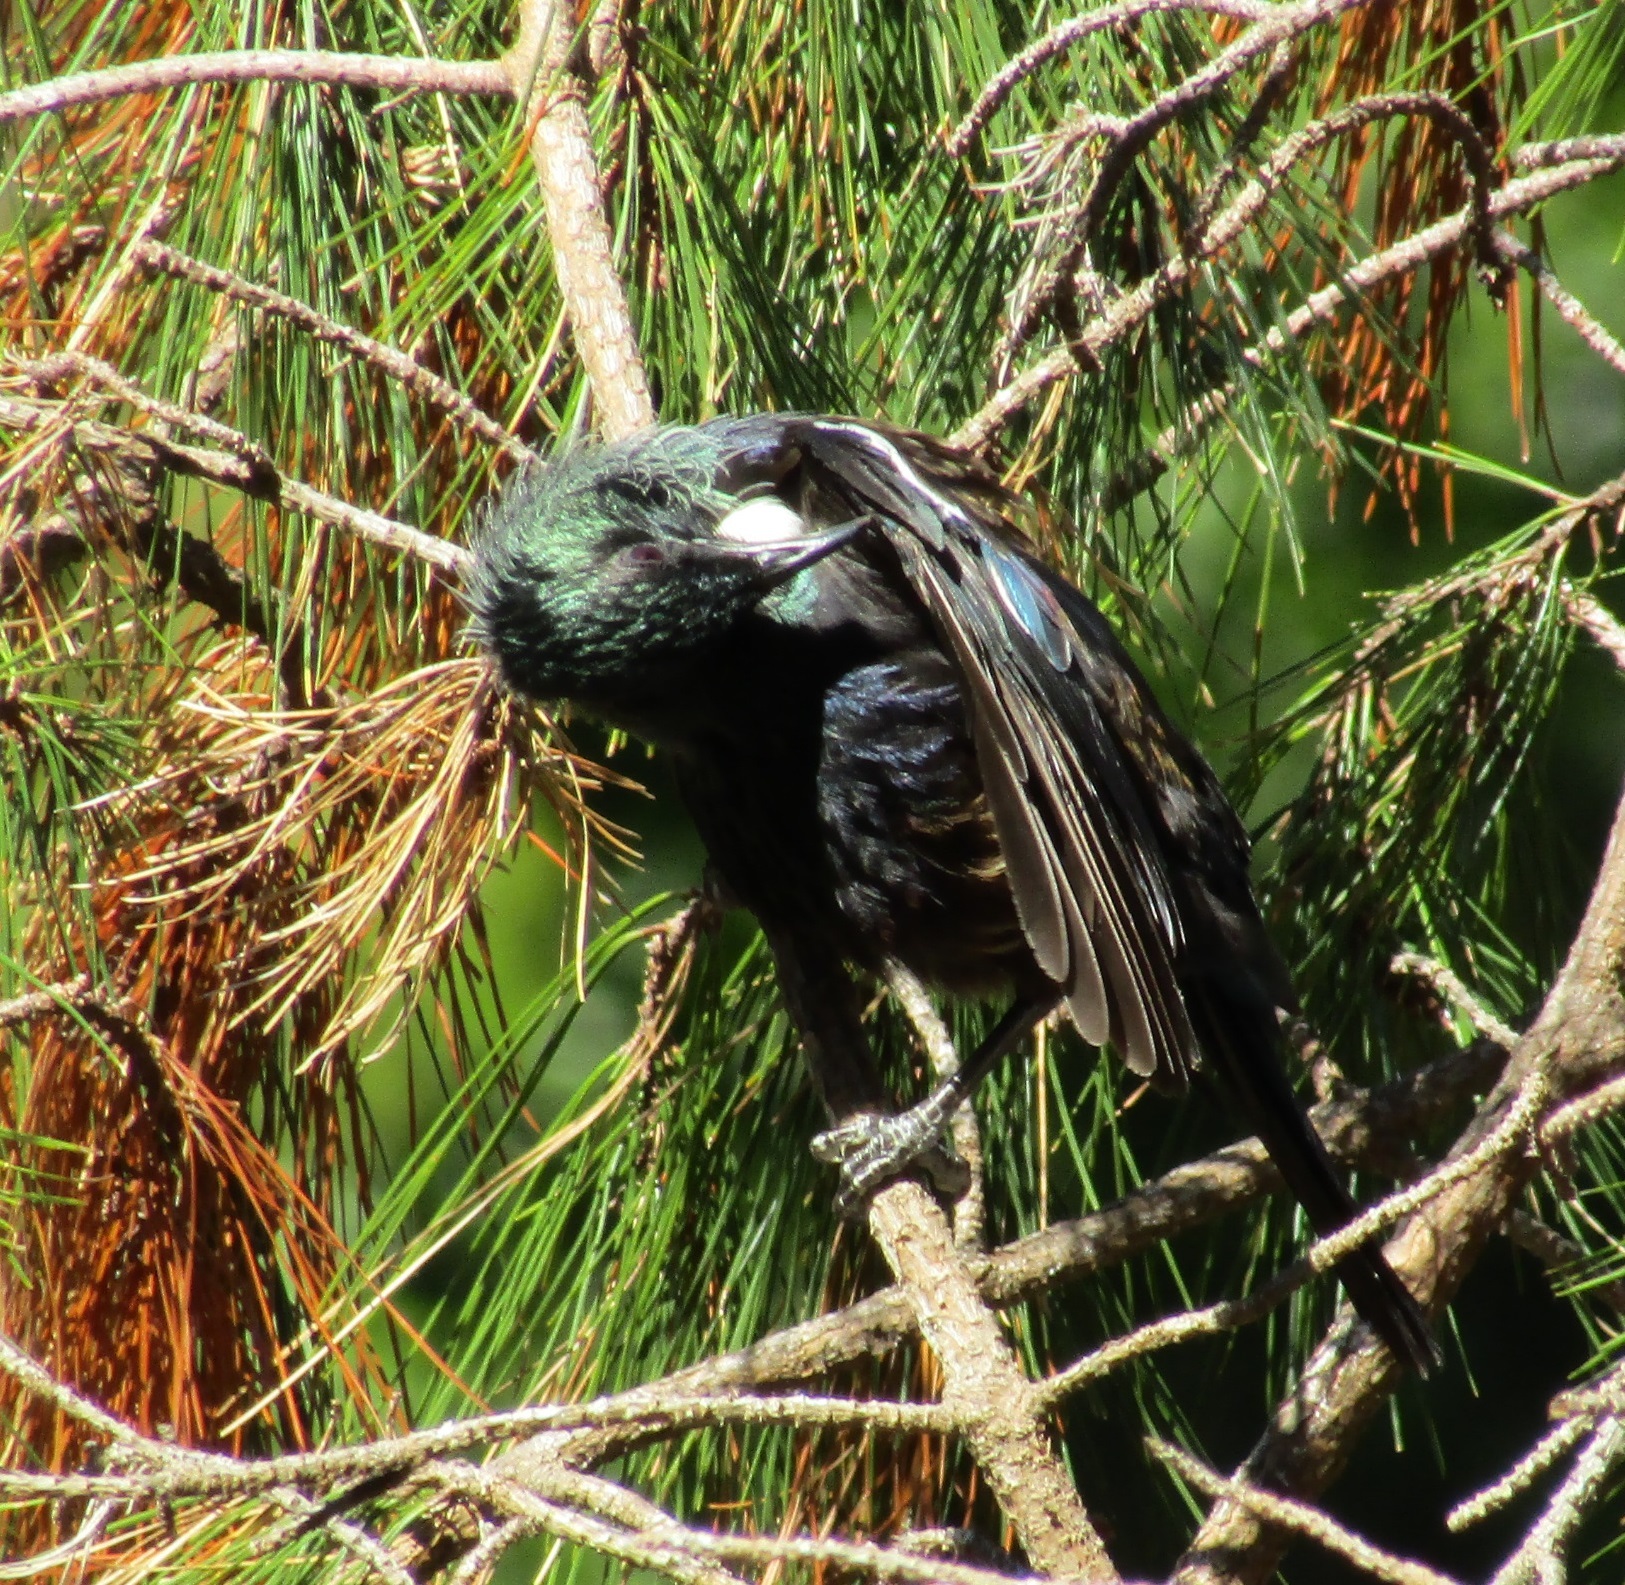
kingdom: Animalia
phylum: Chordata
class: Aves
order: Passeriformes
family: Meliphagidae
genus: Prosthemadera
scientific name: Prosthemadera novaeseelandiae
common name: Tui
